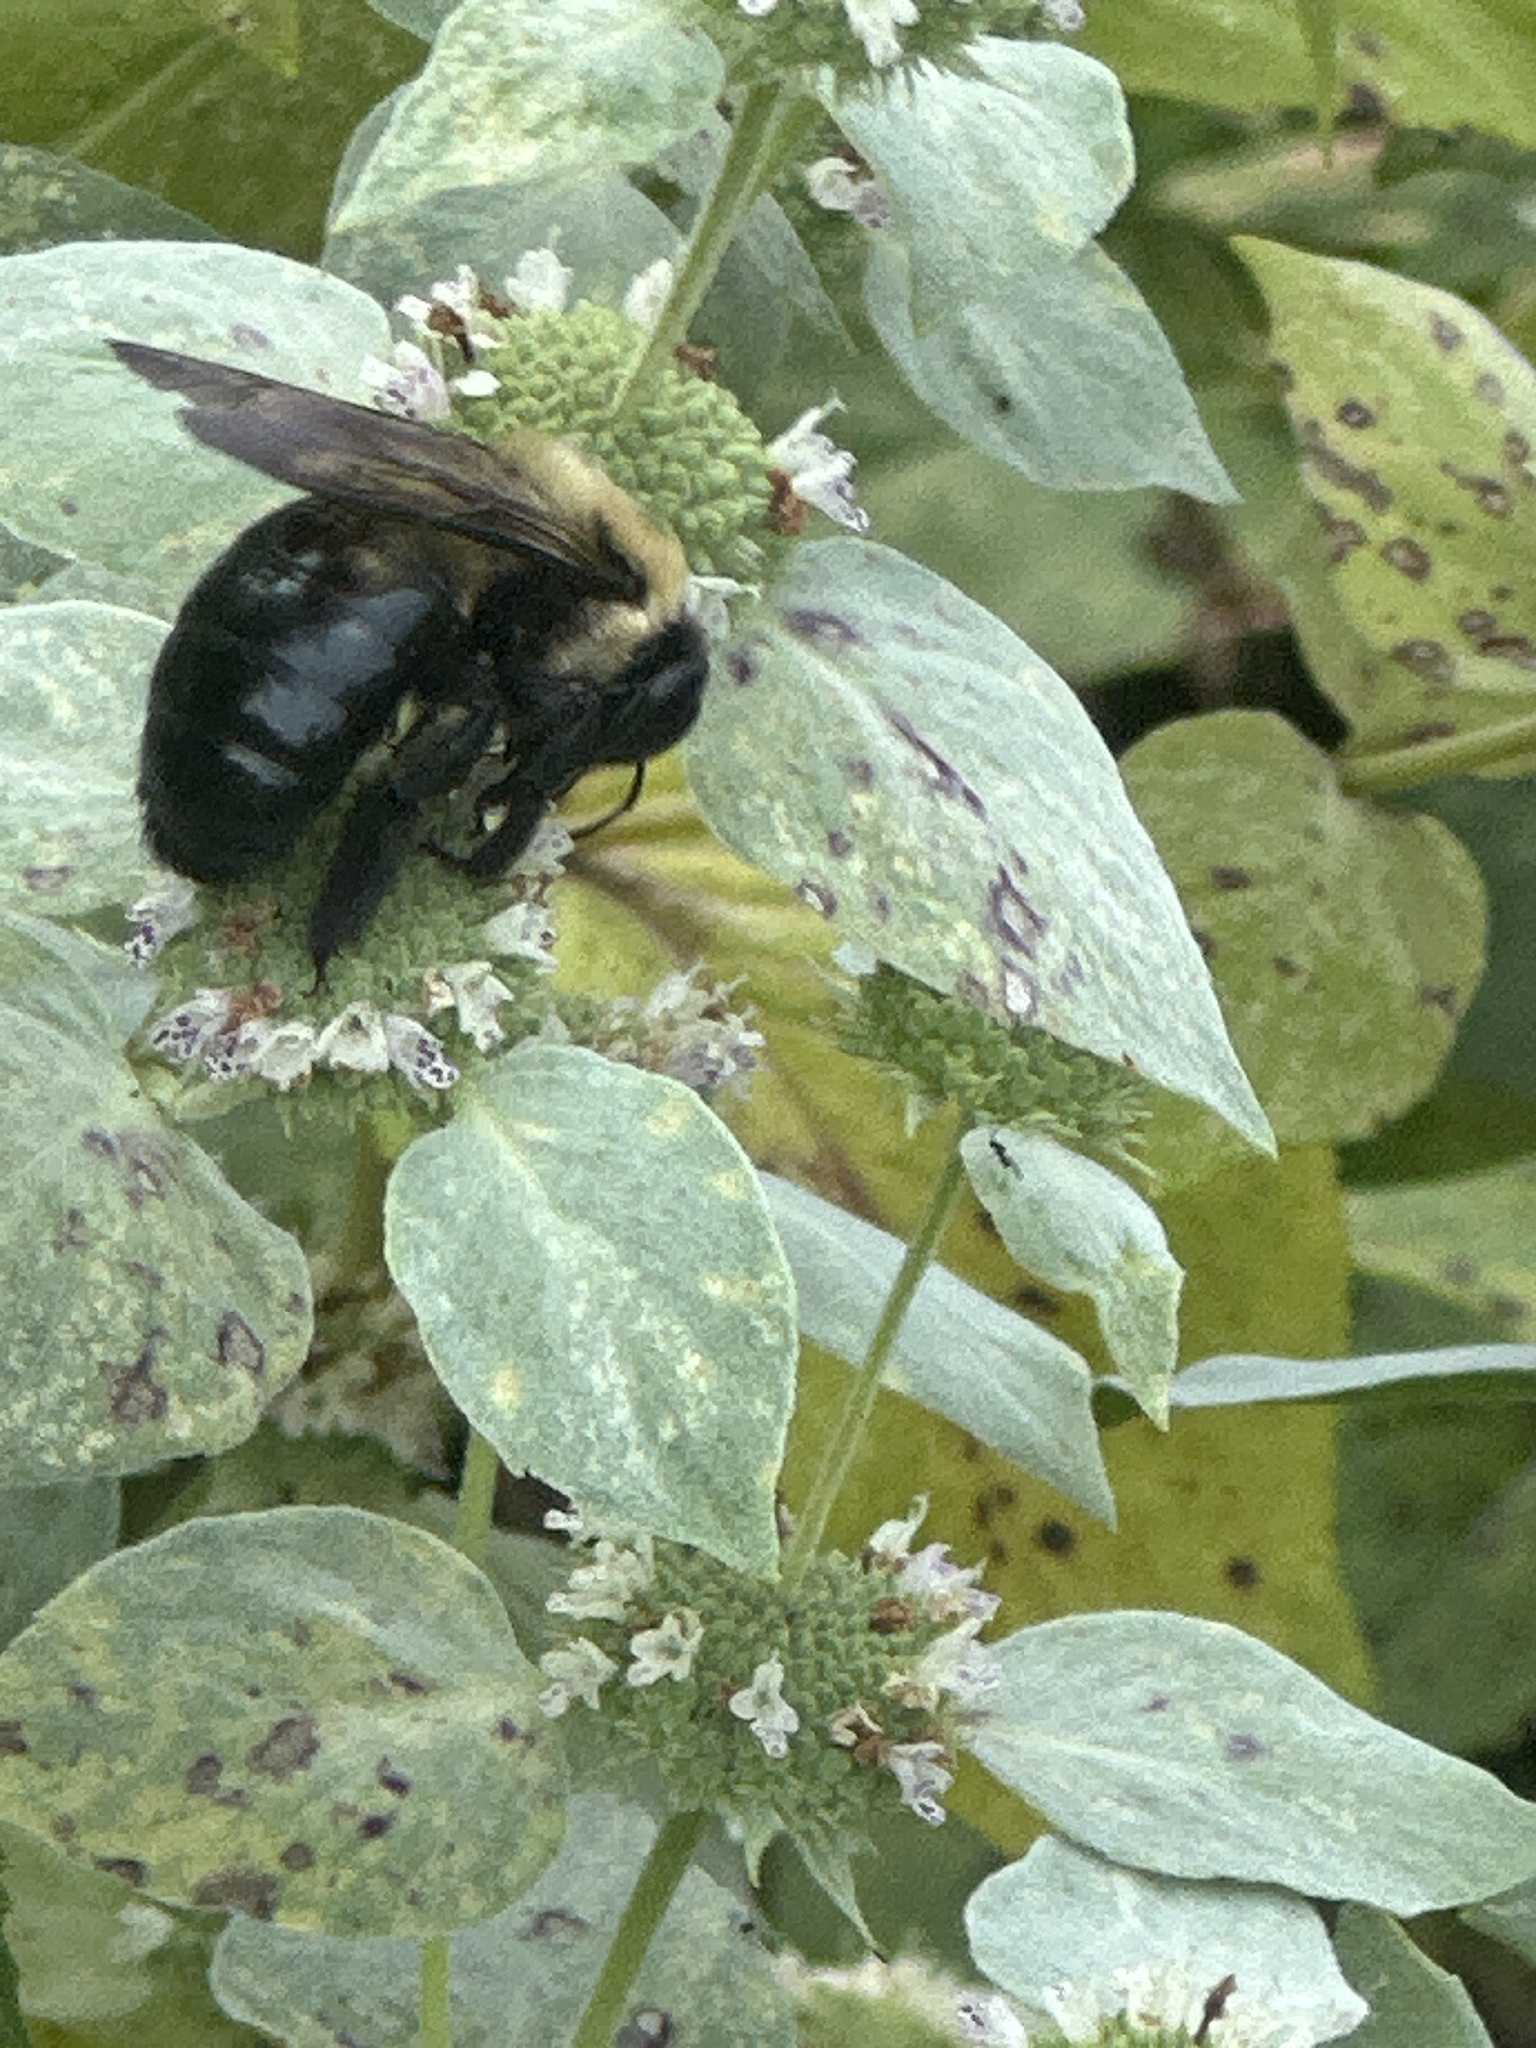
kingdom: Animalia
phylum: Arthropoda
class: Insecta
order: Hymenoptera
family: Apidae
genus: Xylocopa
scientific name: Xylocopa virginica
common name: Carpenter bee
